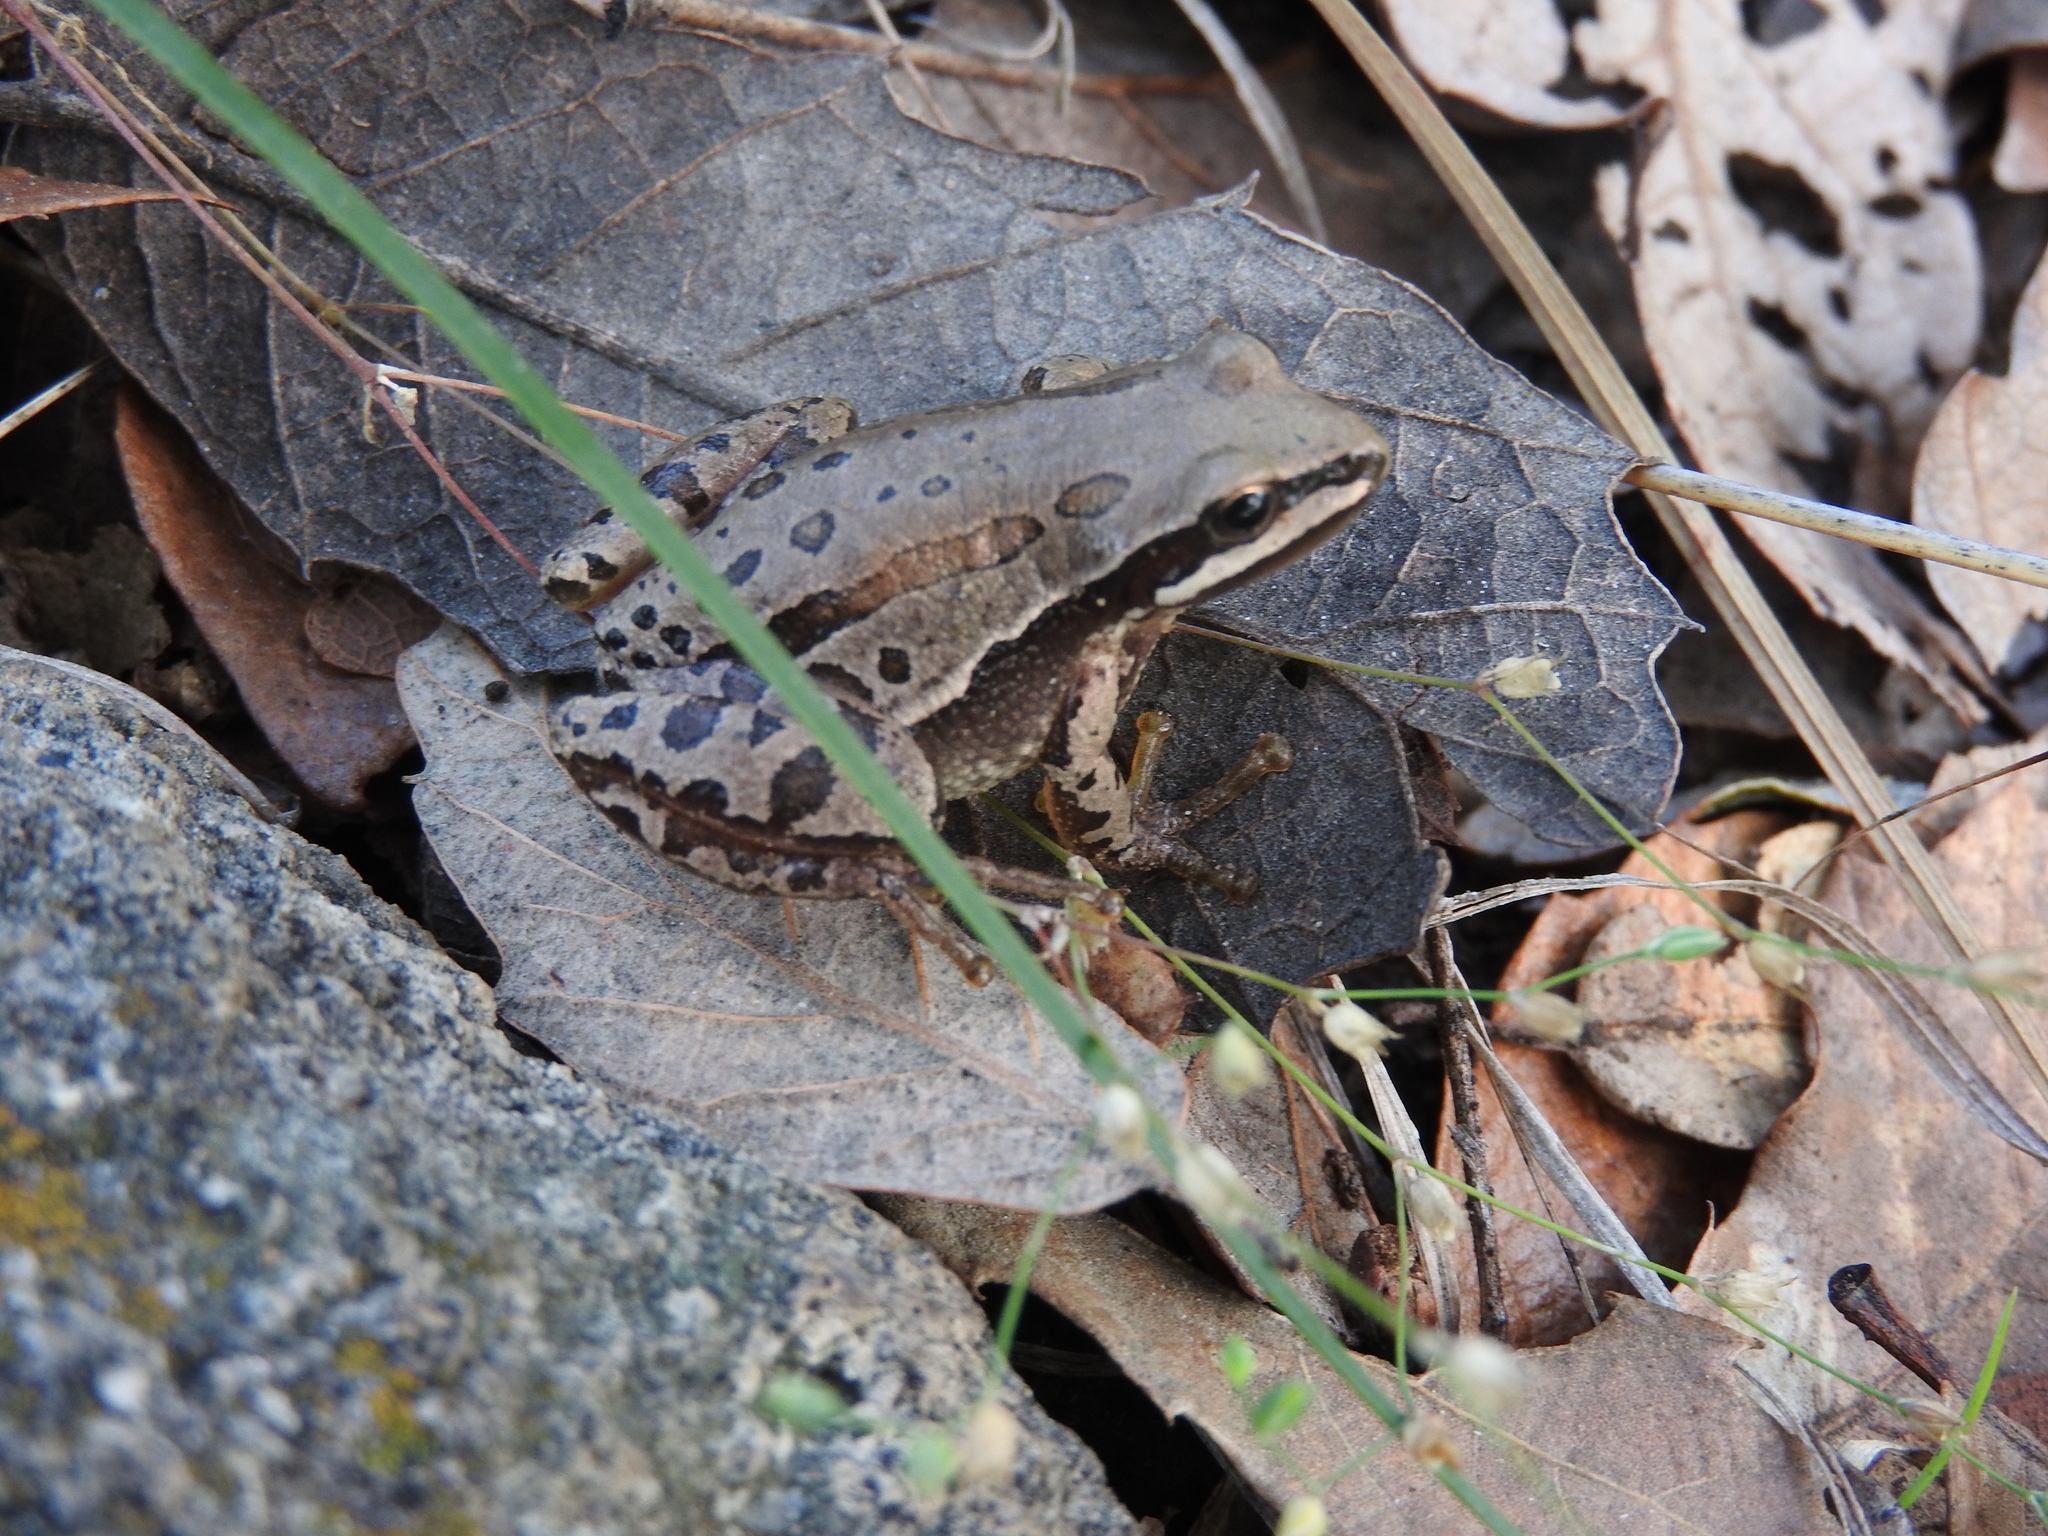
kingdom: Animalia
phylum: Chordata
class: Amphibia
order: Anura
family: Hylidae
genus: Dryophytes
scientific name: Dryophytes eximius
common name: Mountain treefrog
